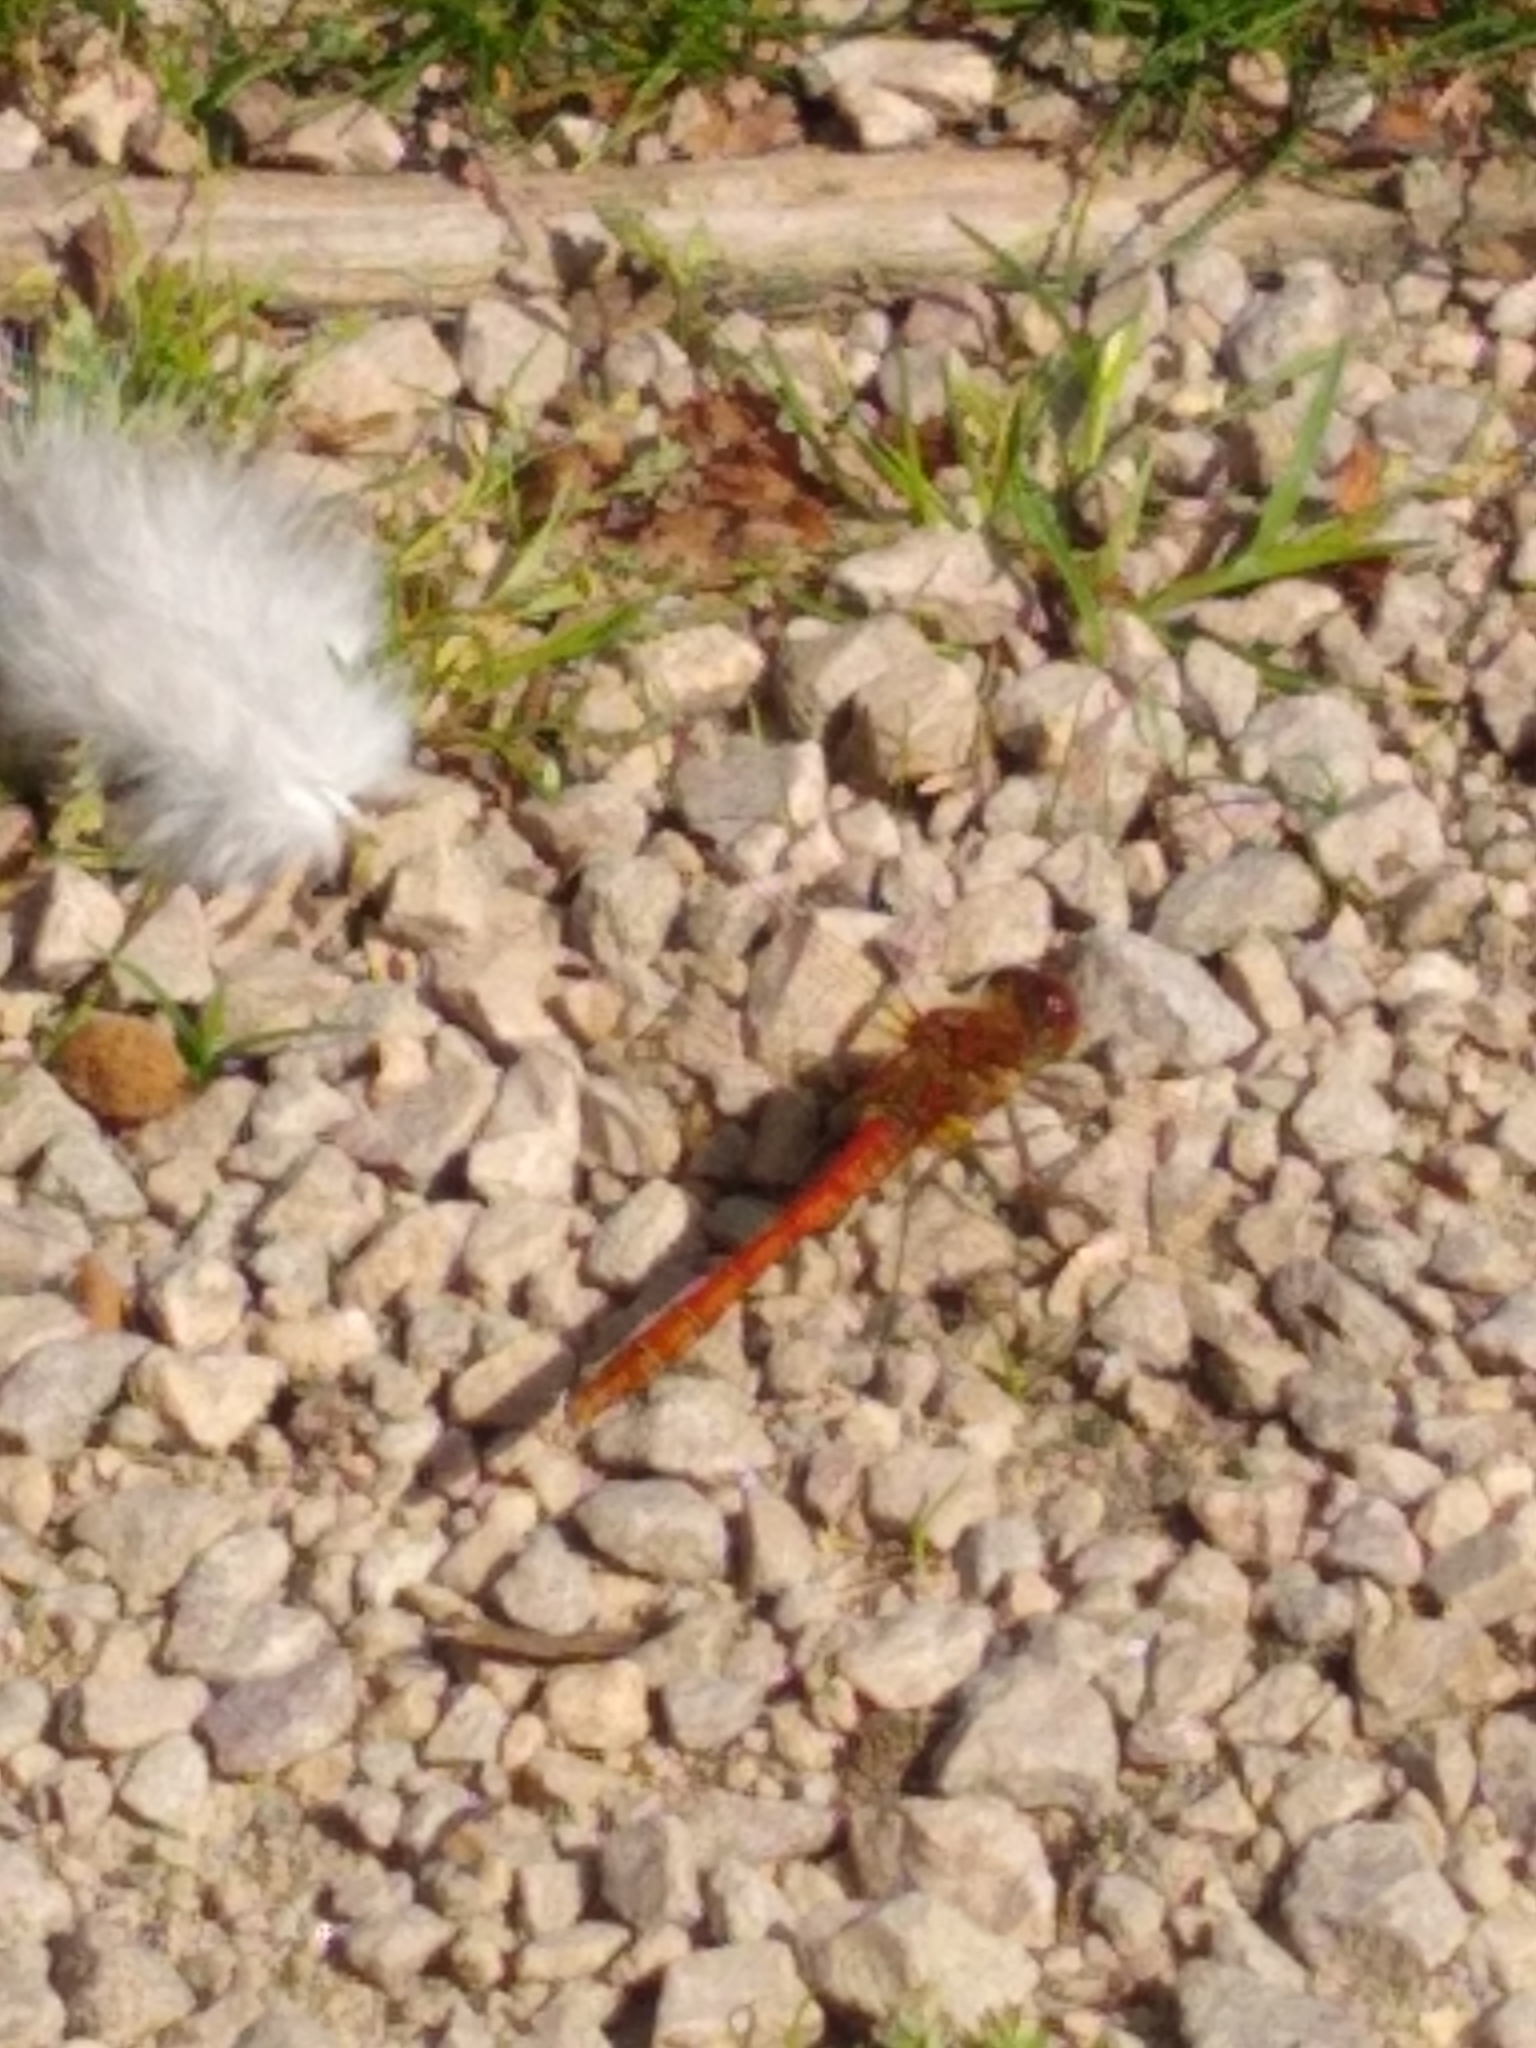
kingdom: Animalia
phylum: Arthropoda
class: Insecta
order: Odonata
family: Libellulidae
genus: Sympetrum
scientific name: Sympetrum striolatum
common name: Common darter
